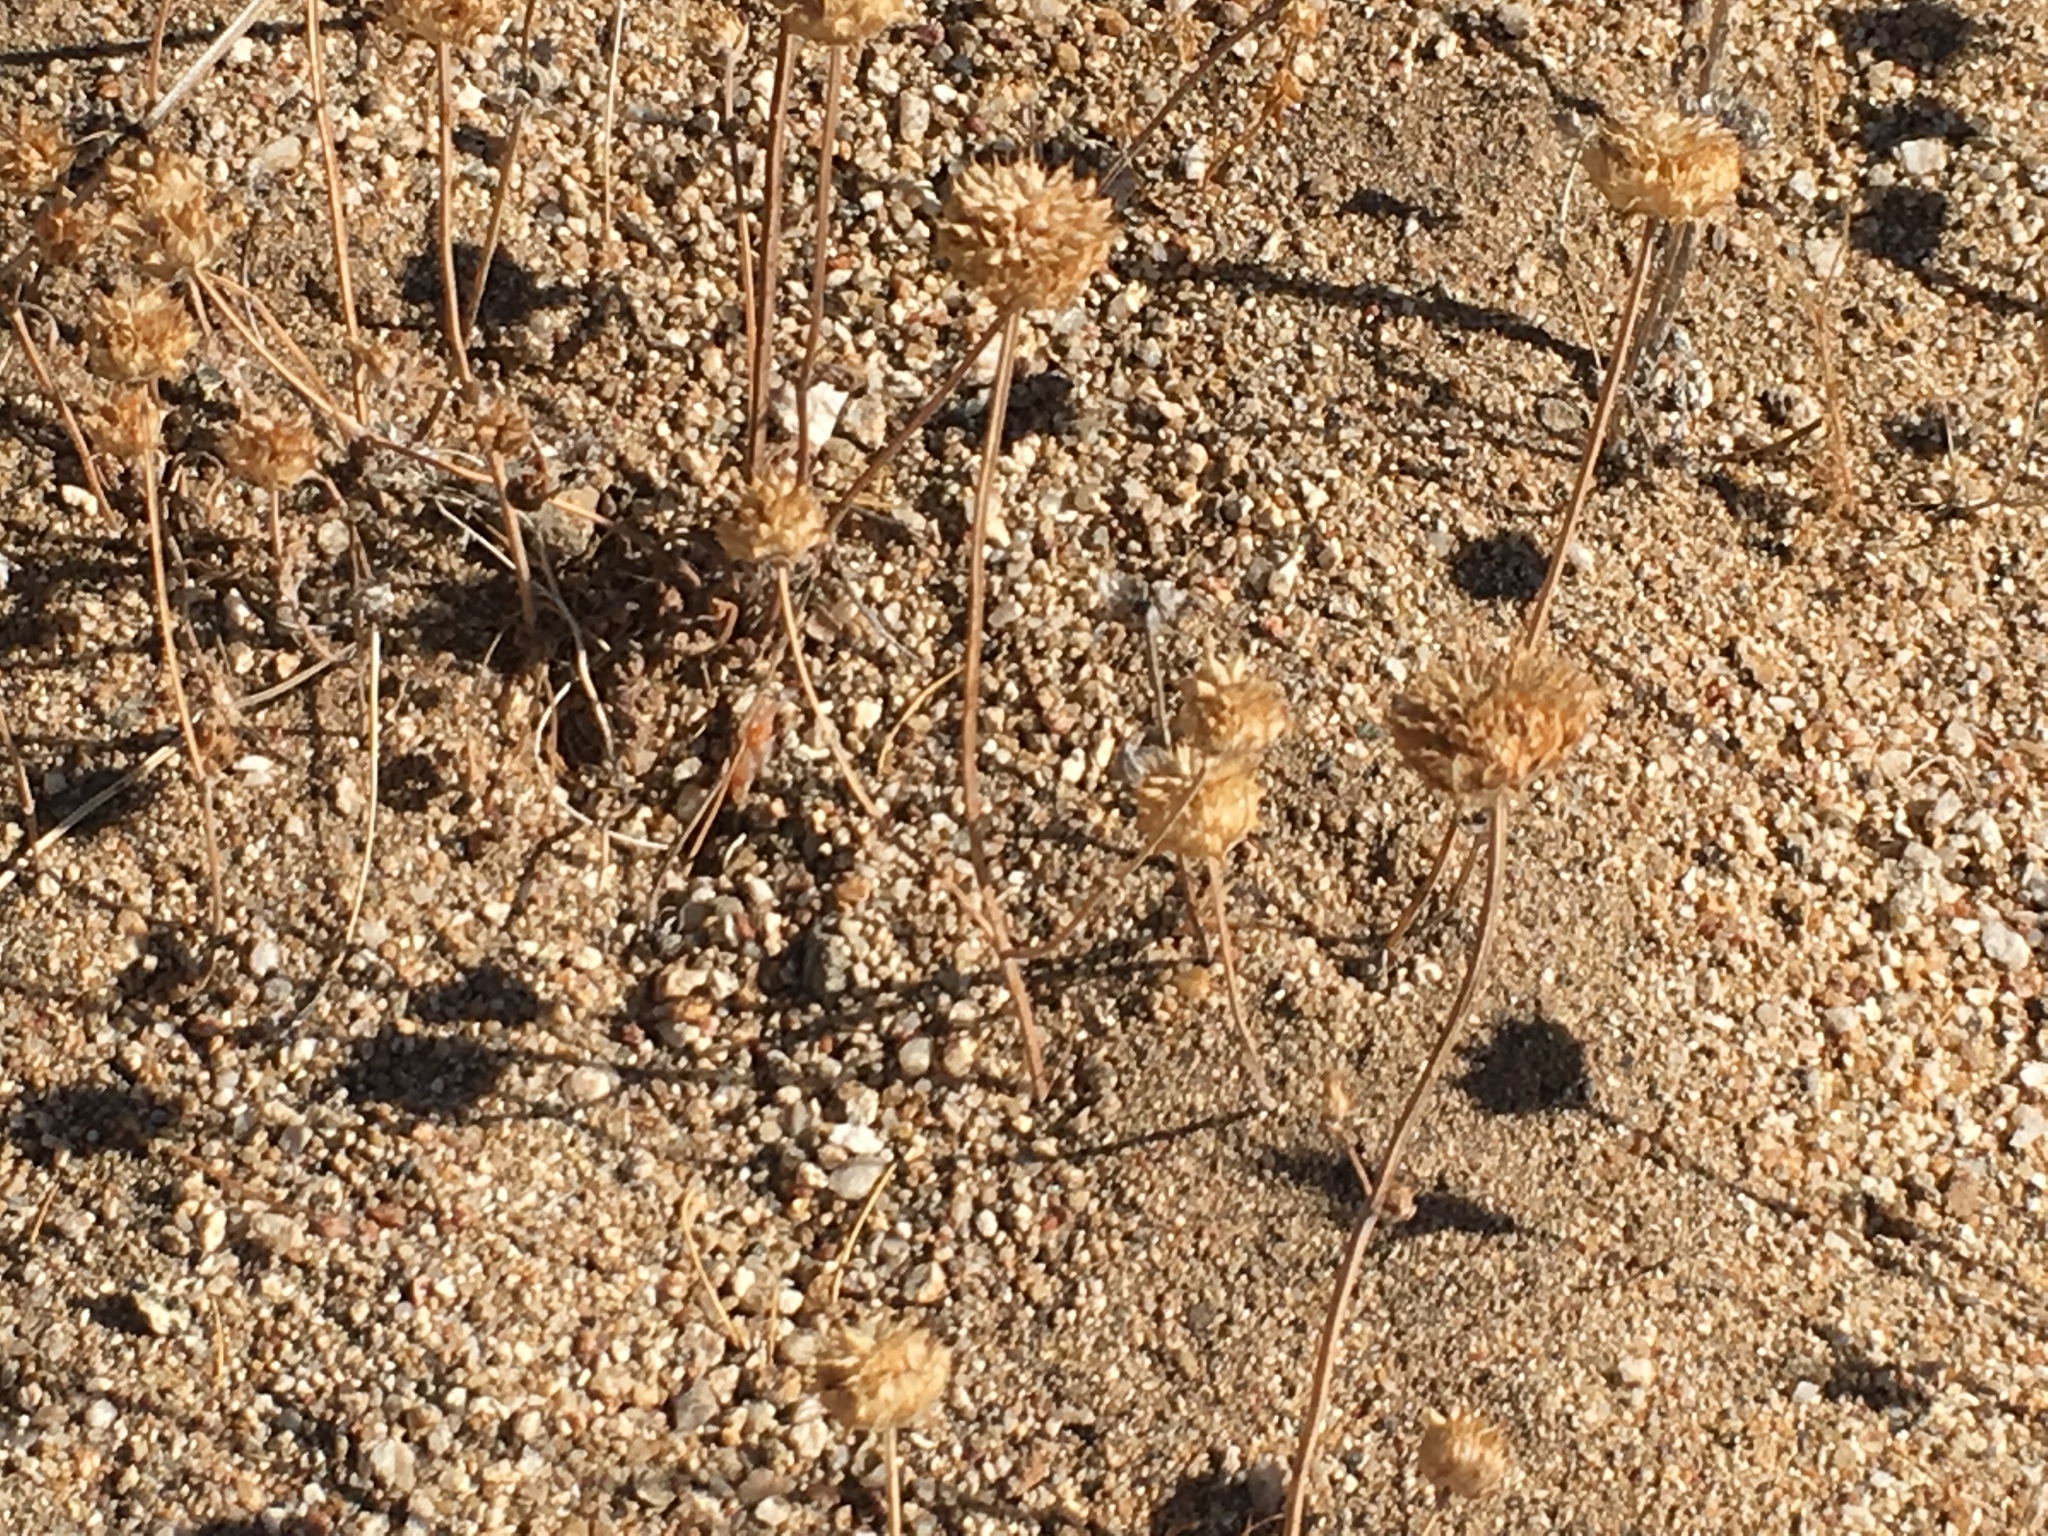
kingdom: Plantae
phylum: Tracheophyta
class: Magnoliopsida
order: Lamiales
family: Lamiaceae
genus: Salvia
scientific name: Salvia columbariae
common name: Chia
